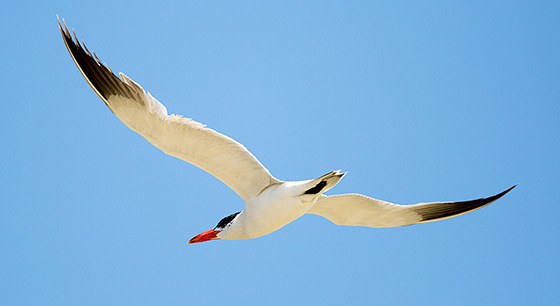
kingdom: Animalia
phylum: Chordata
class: Aves
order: Charadriiformes
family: Laridae
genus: Hydroprogne
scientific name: Hydroprogne caspia
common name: Caspian tern
